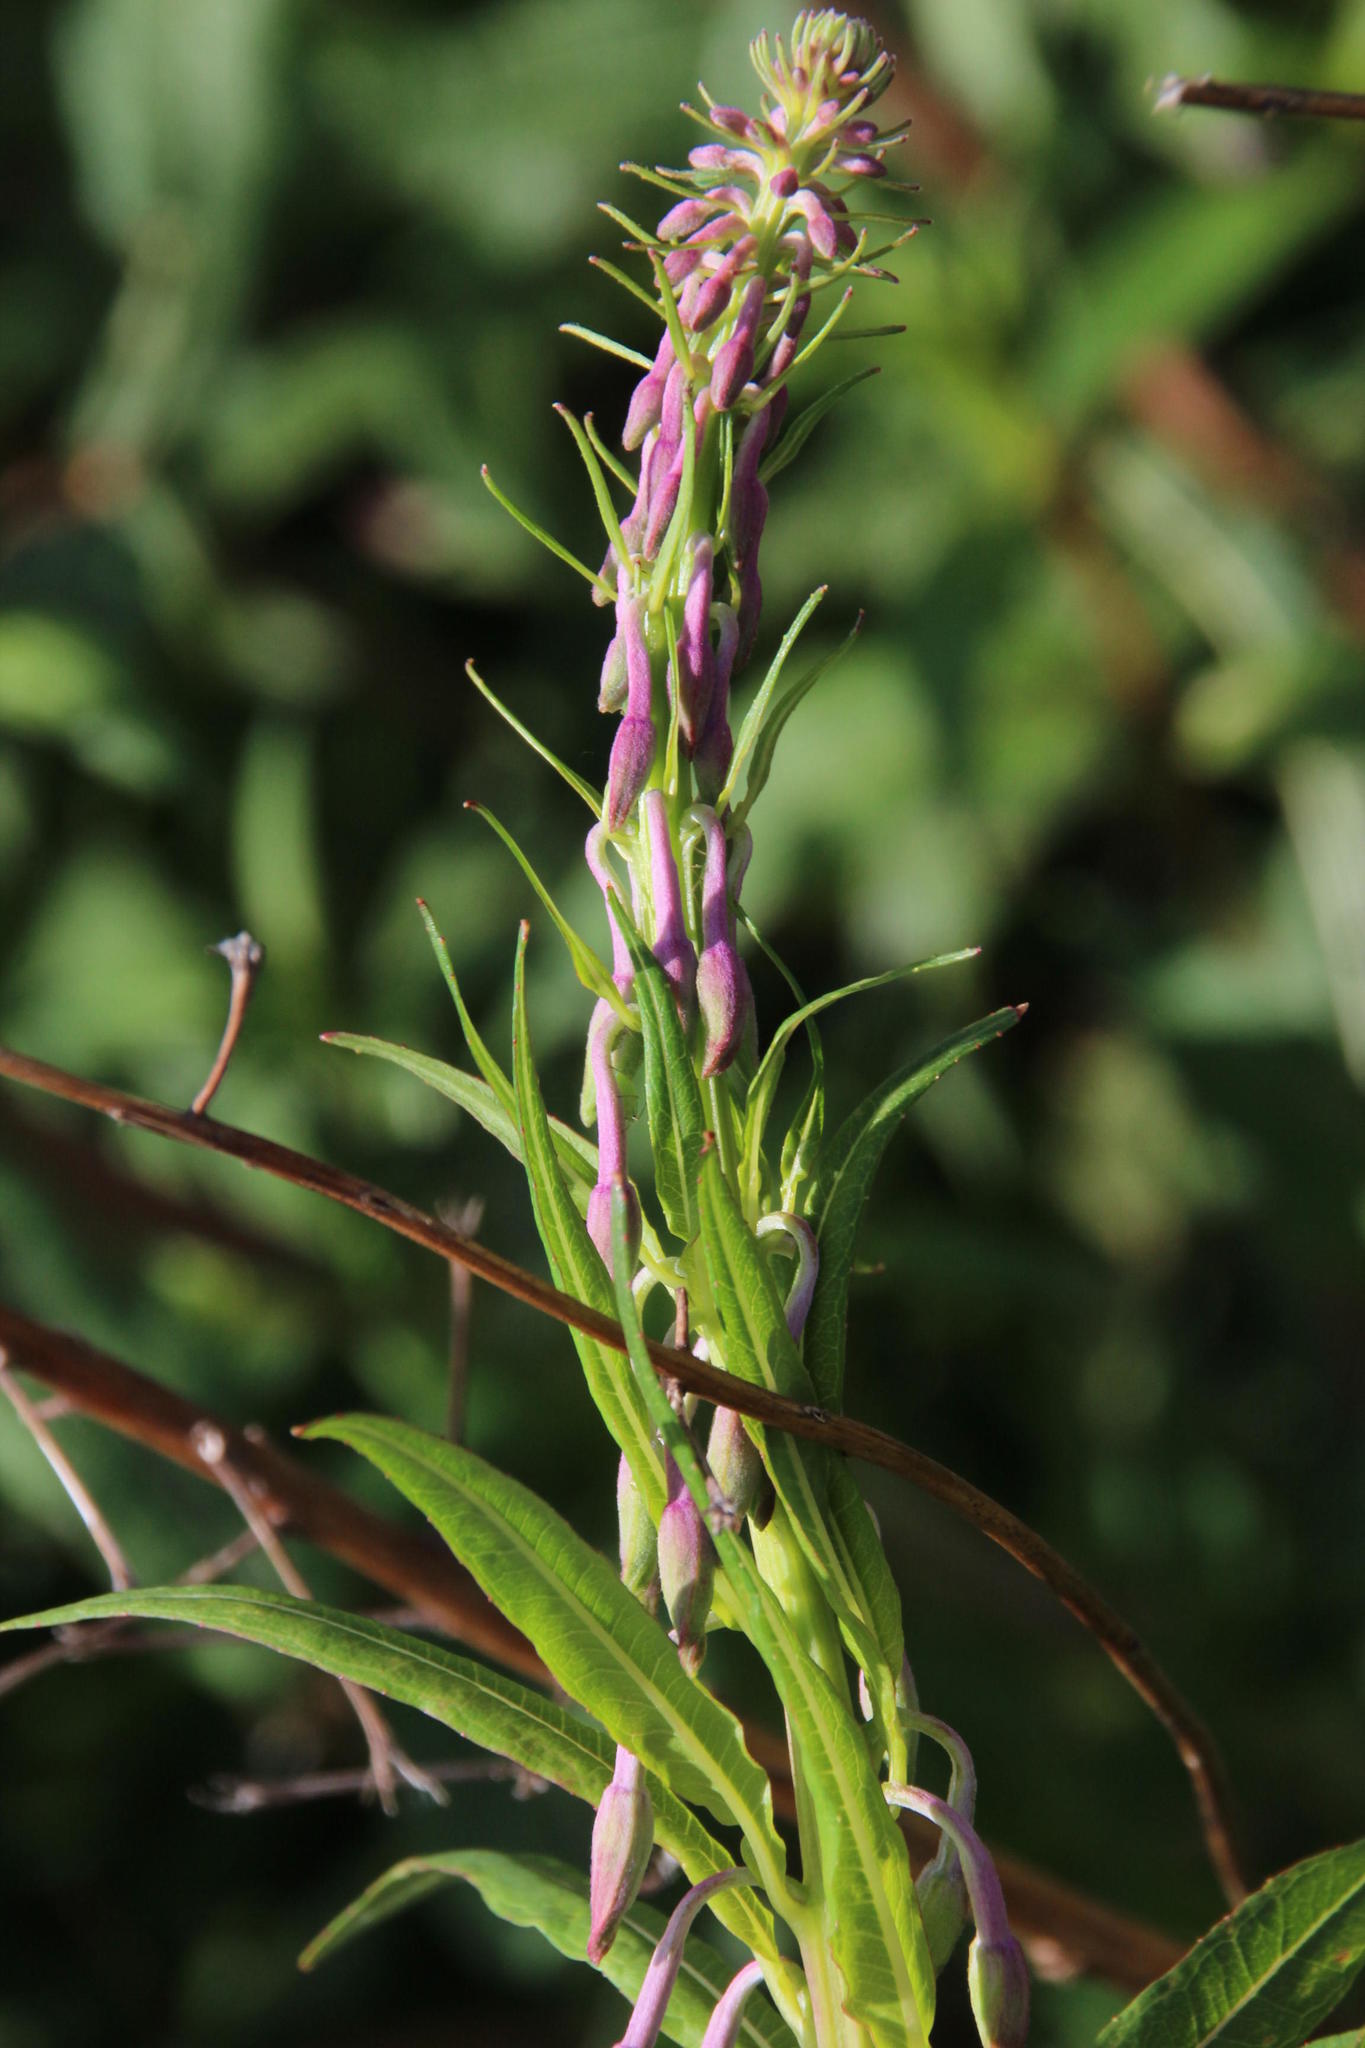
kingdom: Plantae
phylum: Tracheophyta
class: Magnoliopsida
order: Myrtales
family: Onagraceae
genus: Chamaenerion
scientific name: Chamaenerion angustifolium
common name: Fireweed
